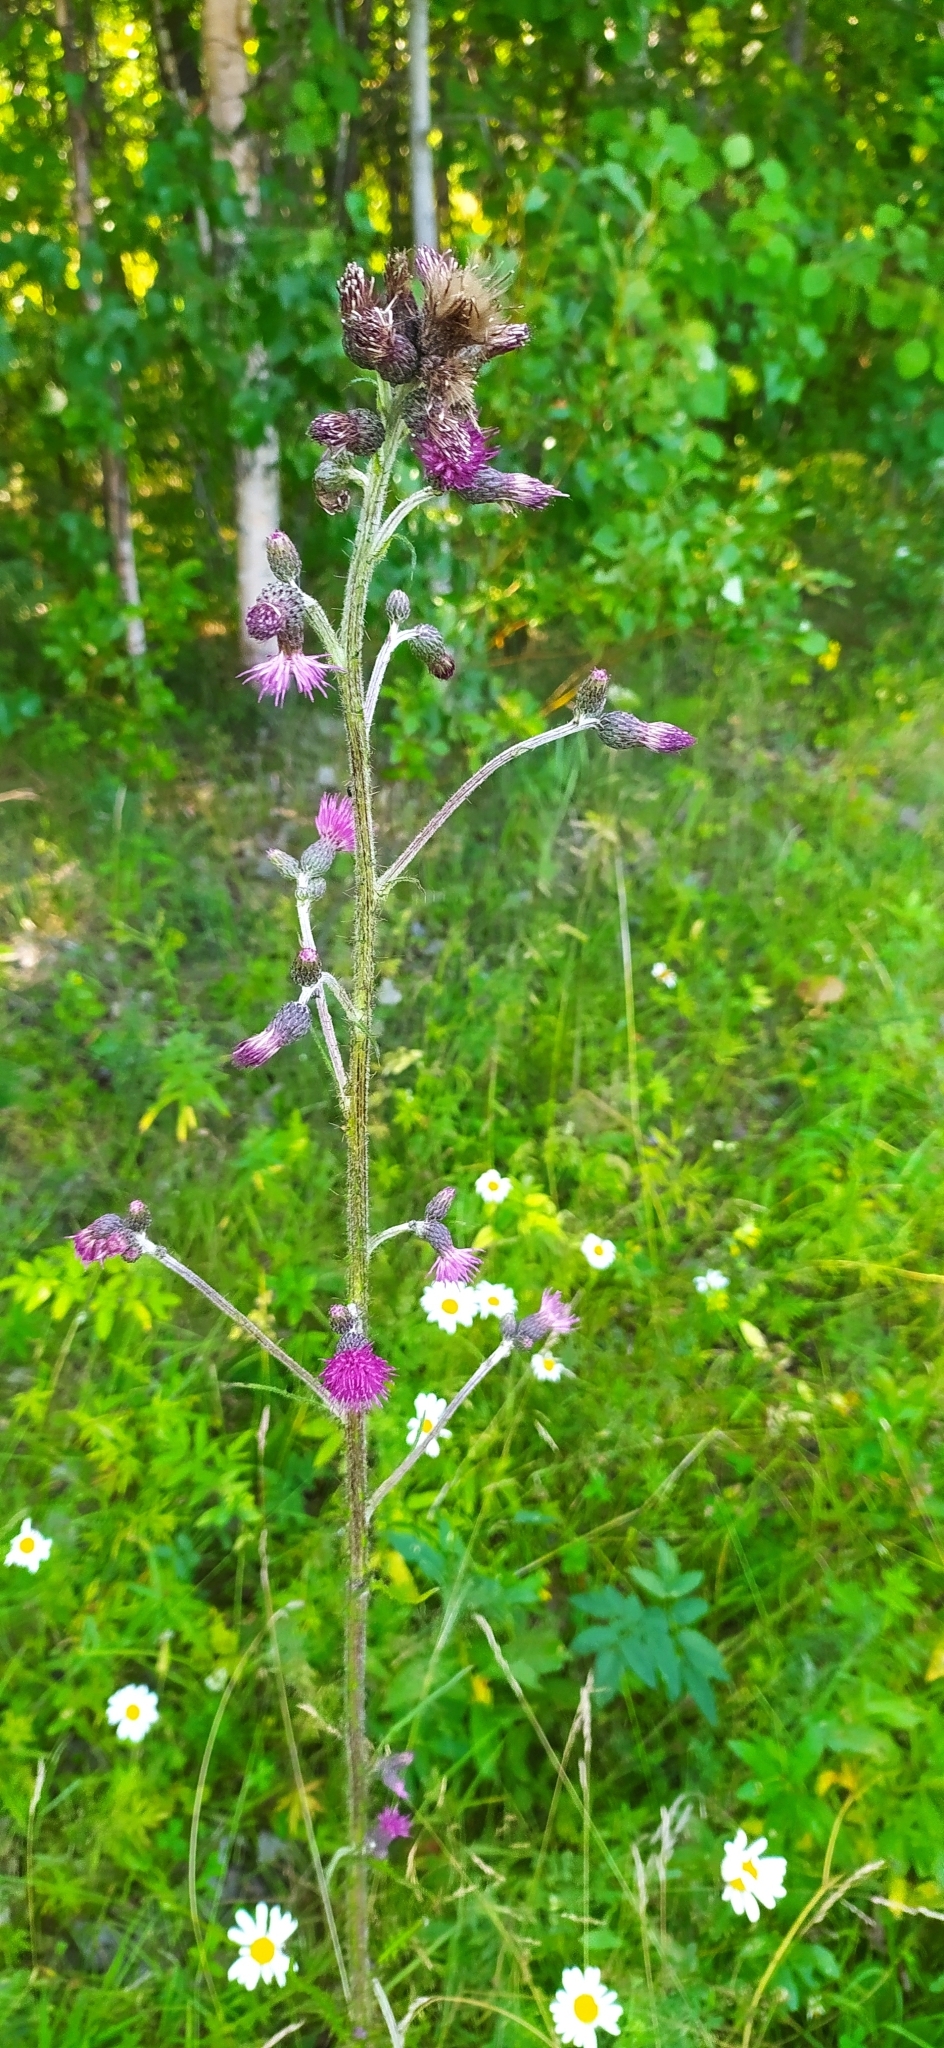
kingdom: Plantae
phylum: Tracheophyta
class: Magnoliopsida
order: Asterales
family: Asteraceae
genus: Cirsium
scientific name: Cirsium palustre
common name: Marsh thistle
